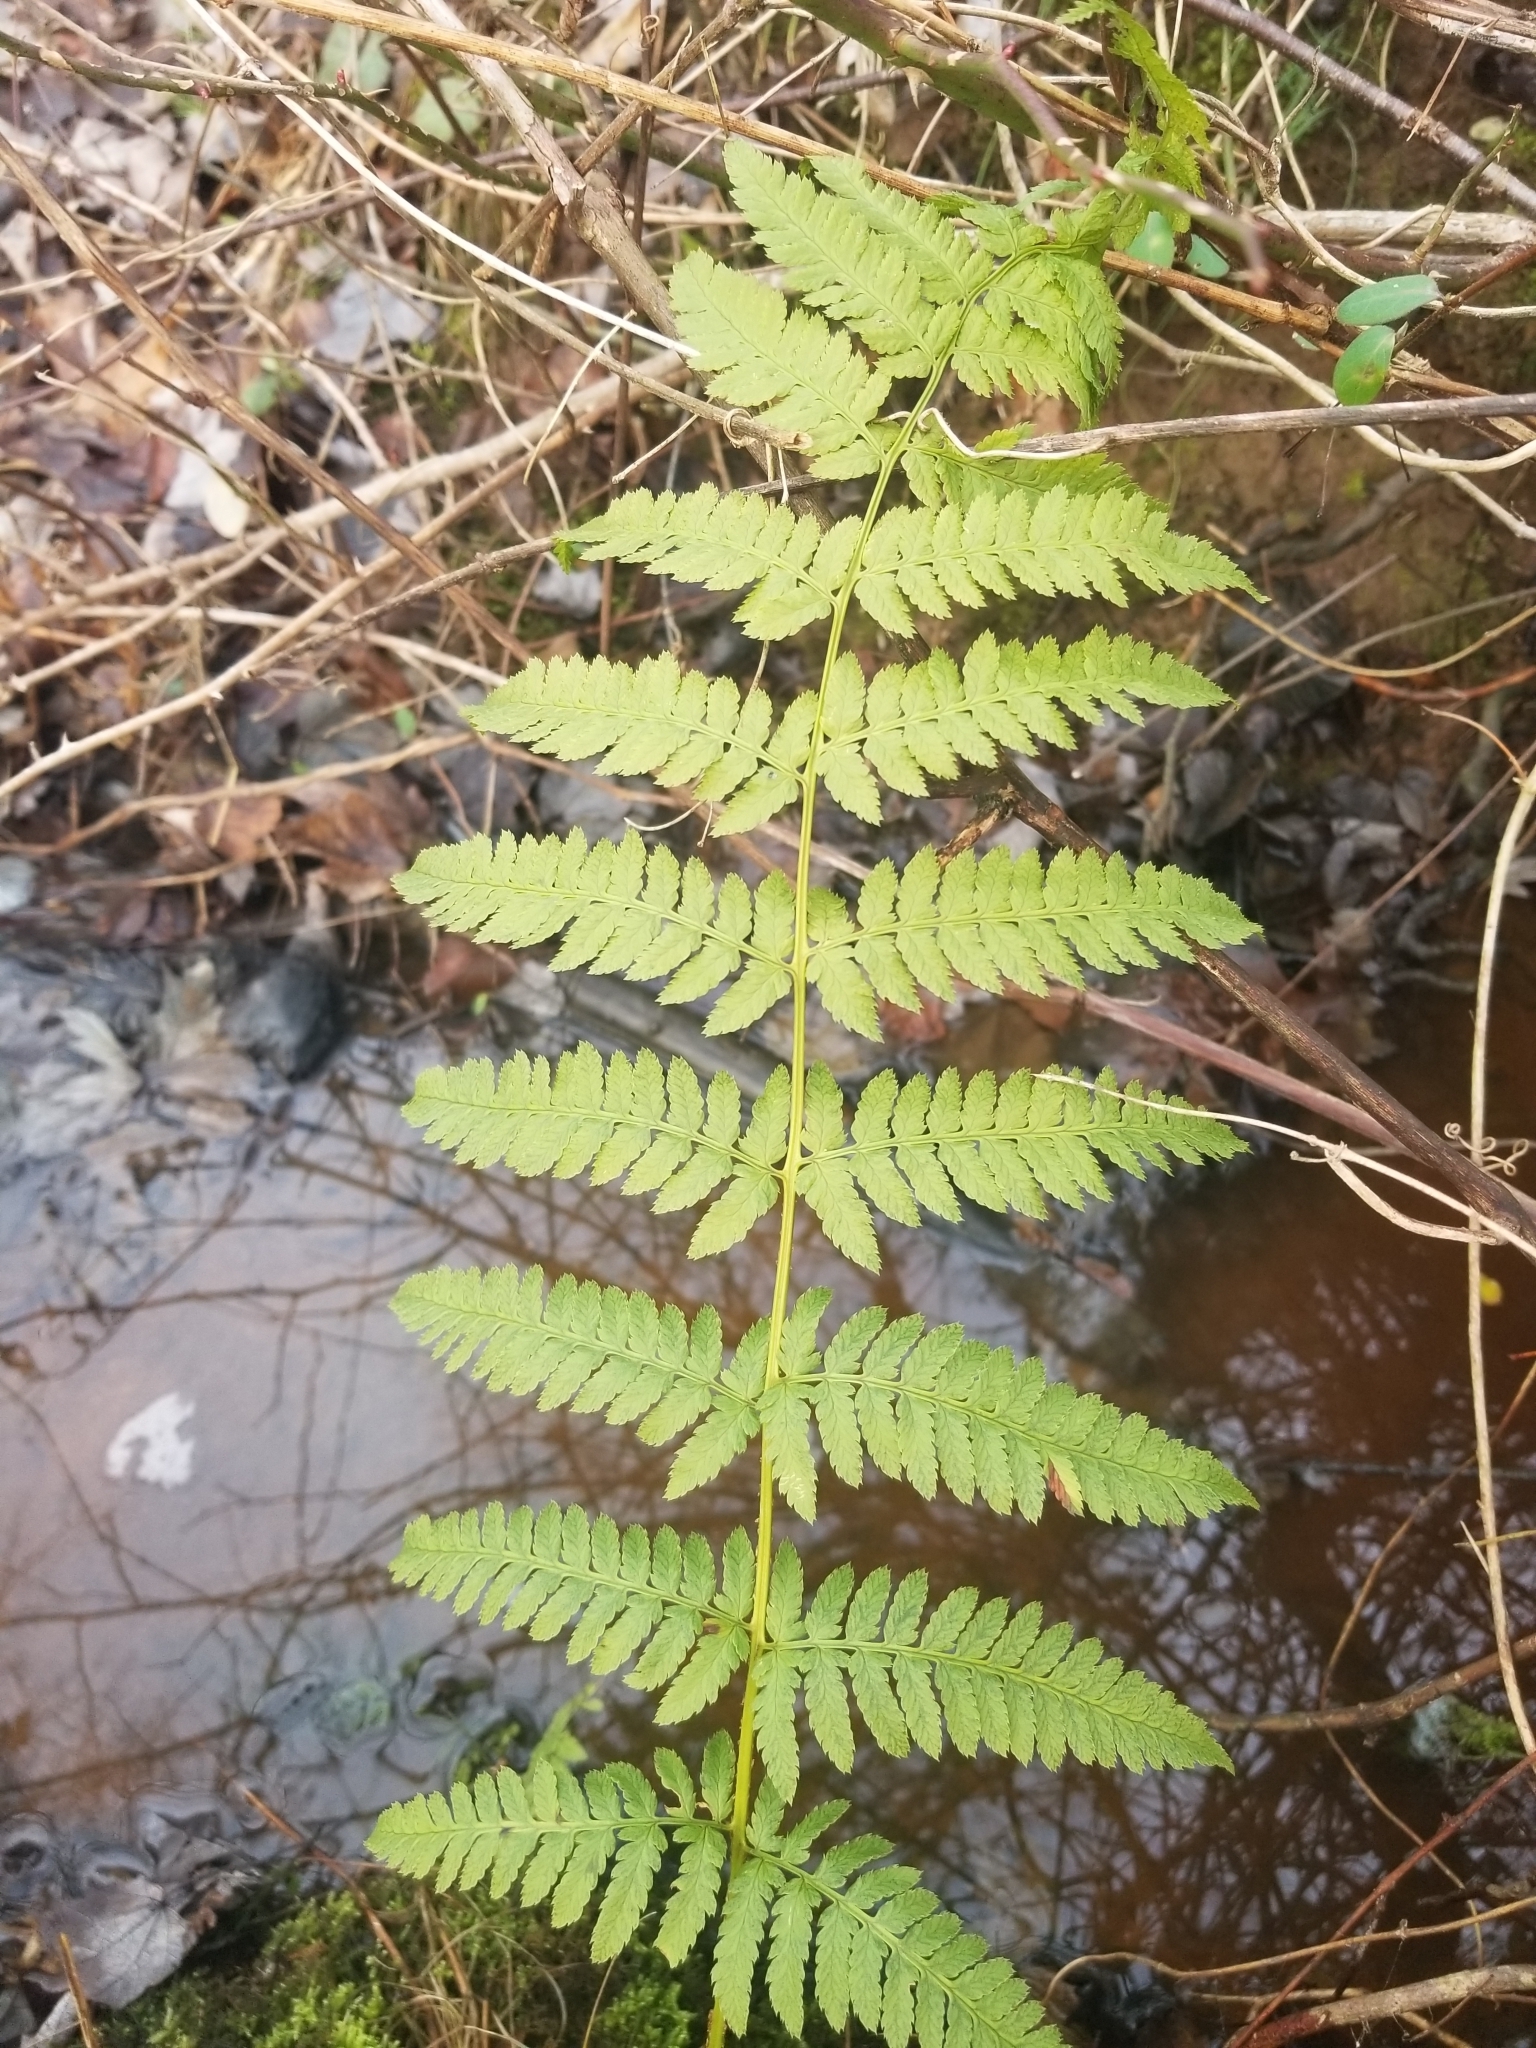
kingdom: Plantae
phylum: Tracheophyta
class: Polypodiopsida
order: Polypodiales
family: Dryopteridaceae
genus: Dryopteris
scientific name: Dryopteris carthusiana
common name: Narrow buckler-fern
